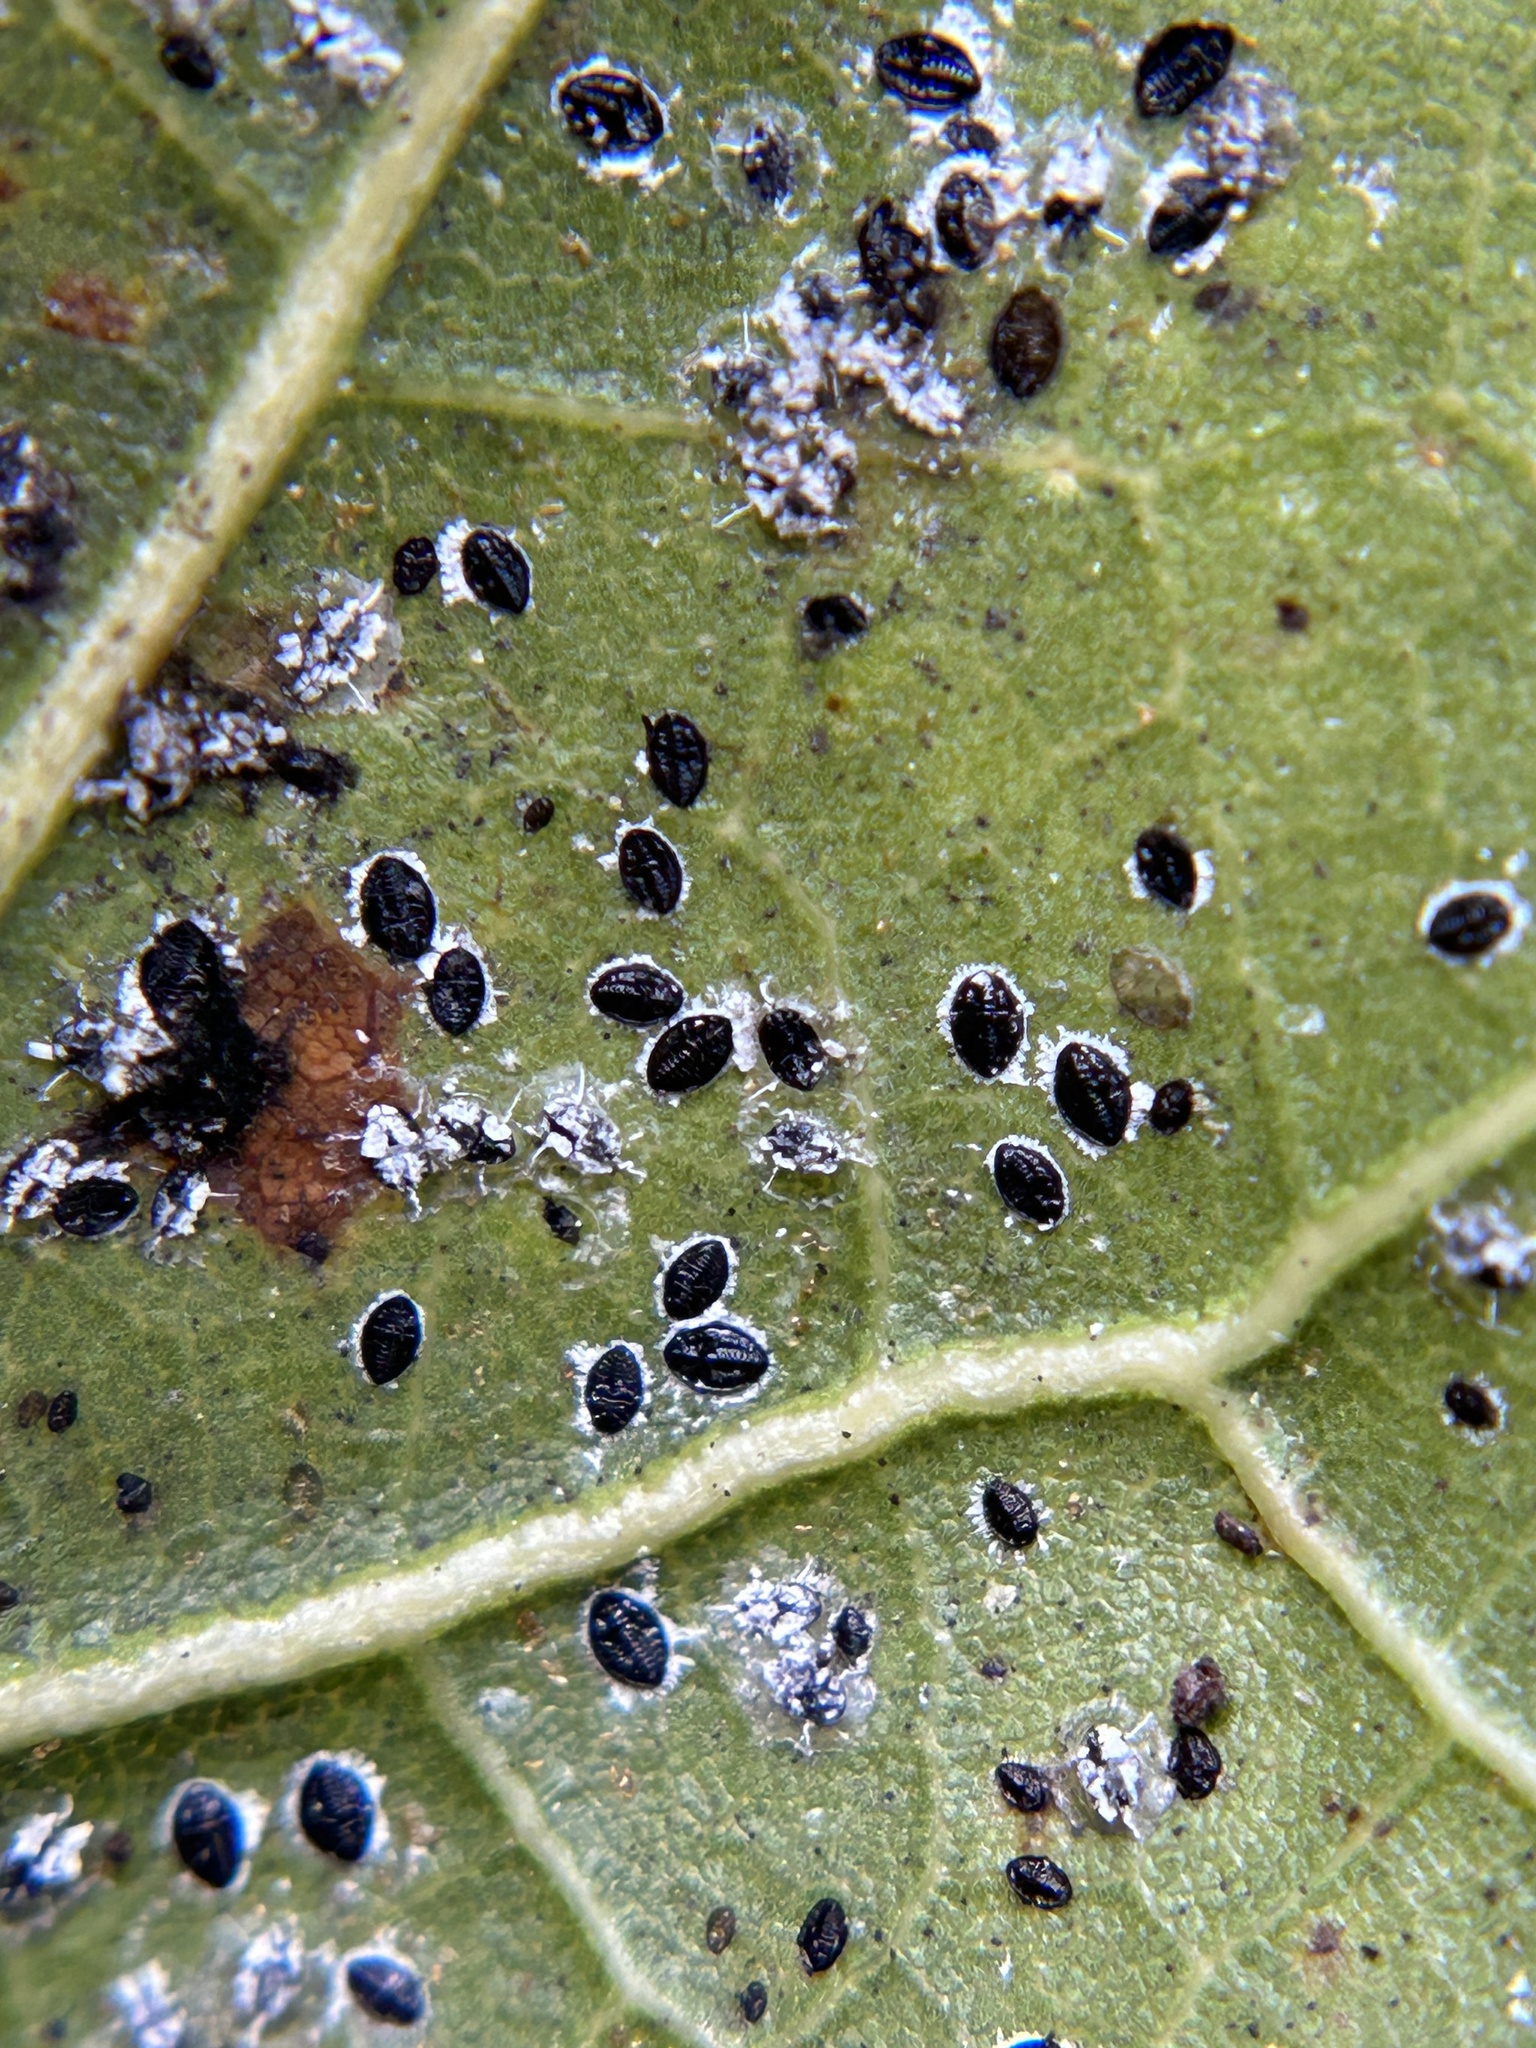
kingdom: Animalia
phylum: Arthropoda
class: Insecta
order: Hemiptera
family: Aleyrodidae
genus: Tetraleurodes
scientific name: Tetraleurodes perileuca
